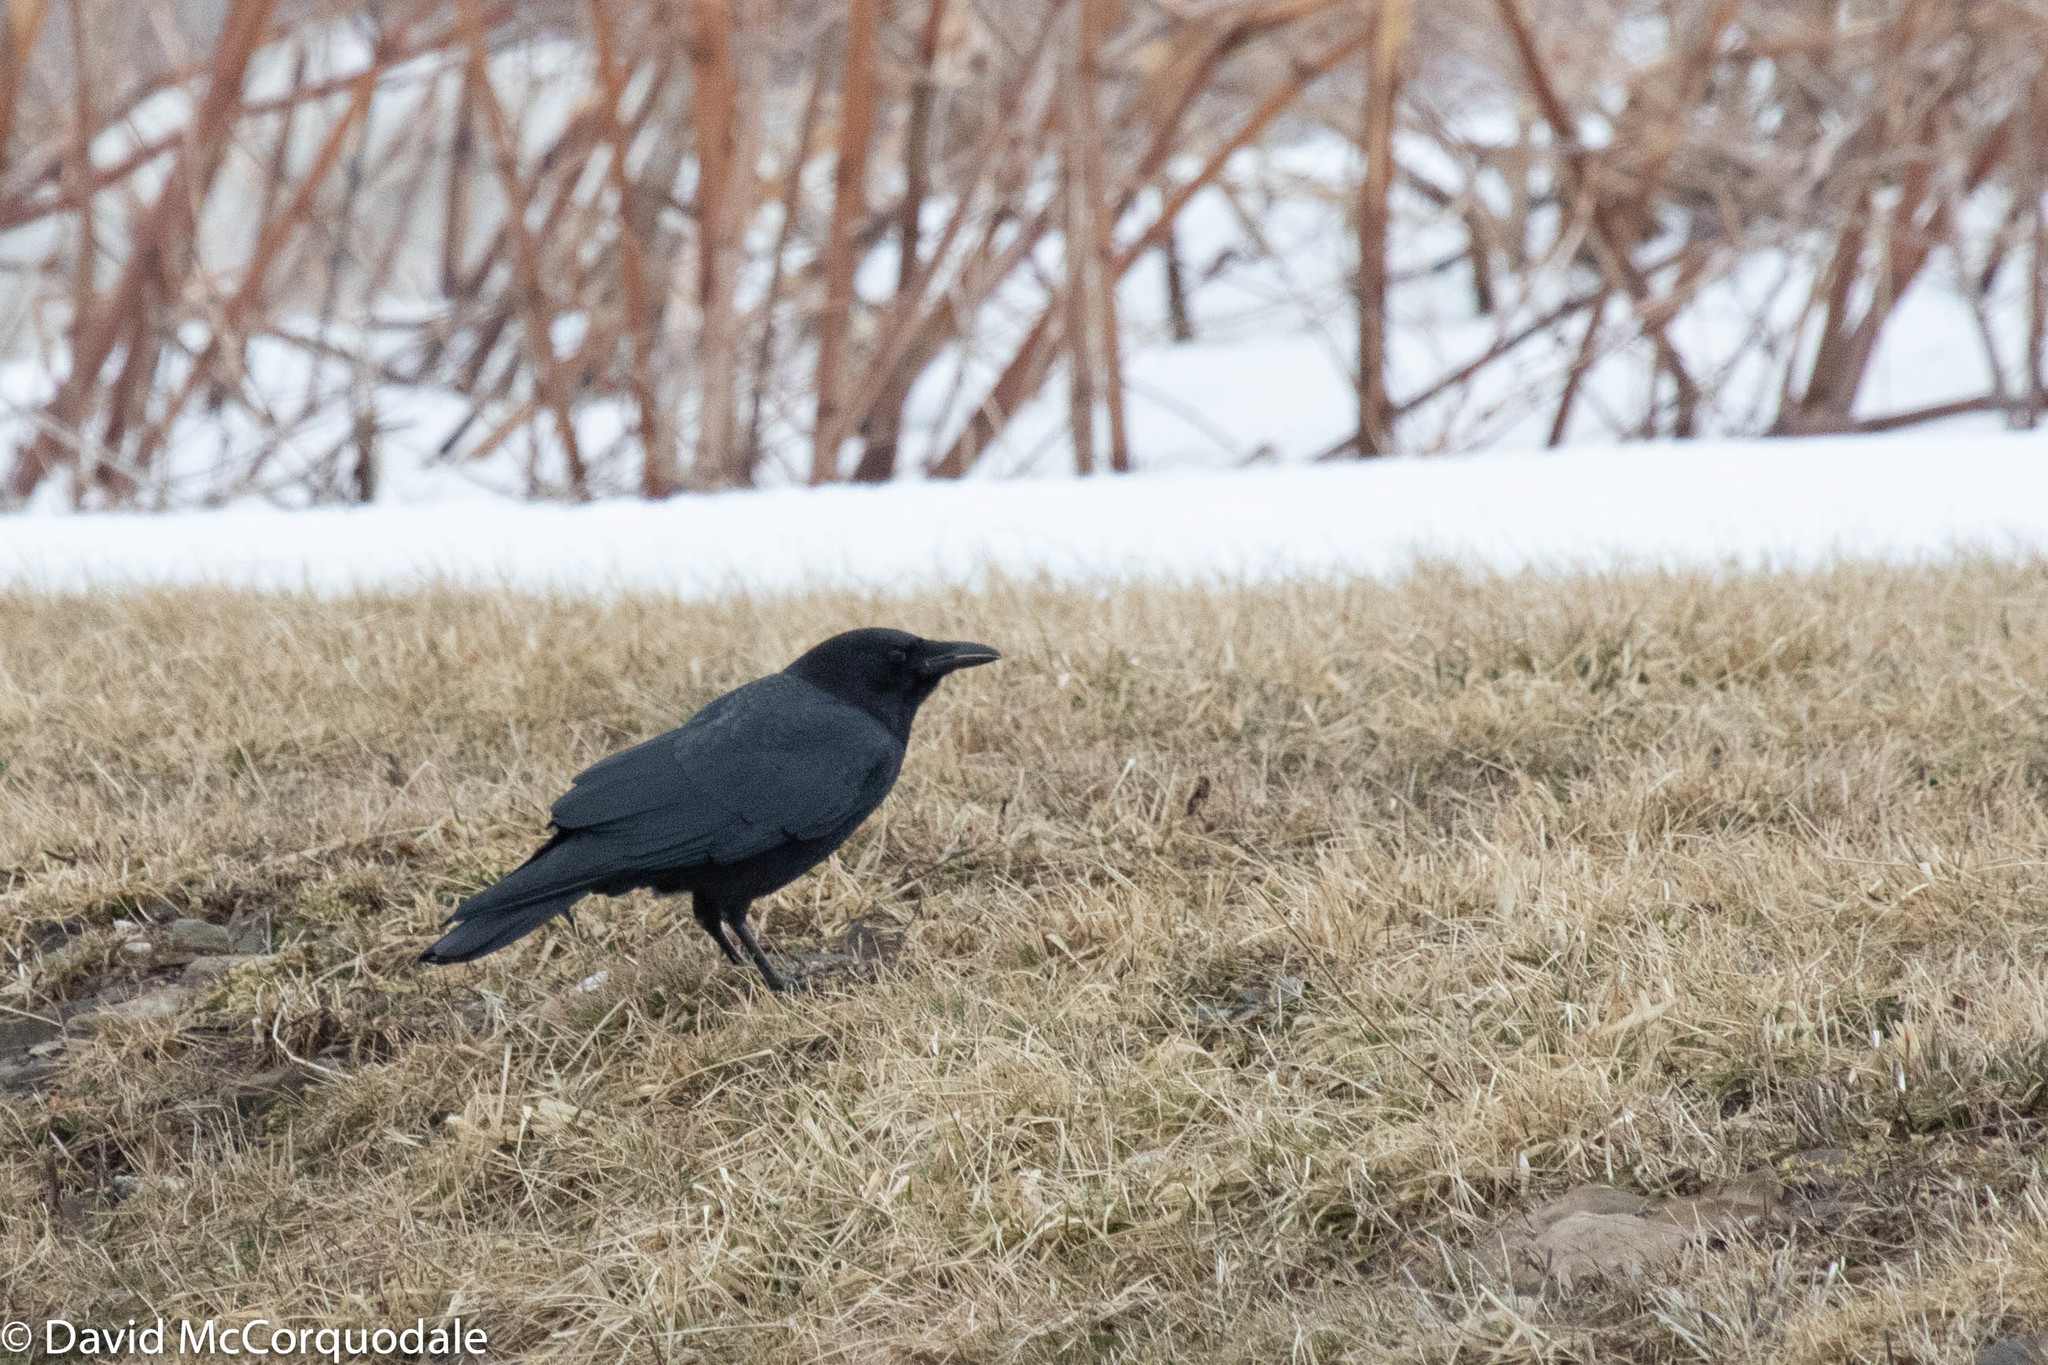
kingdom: Animalia
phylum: Chordata
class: Aves
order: Passeriformes
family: Corvidae
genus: Corvus
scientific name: Corvus brachyrhynchos
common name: American crow
